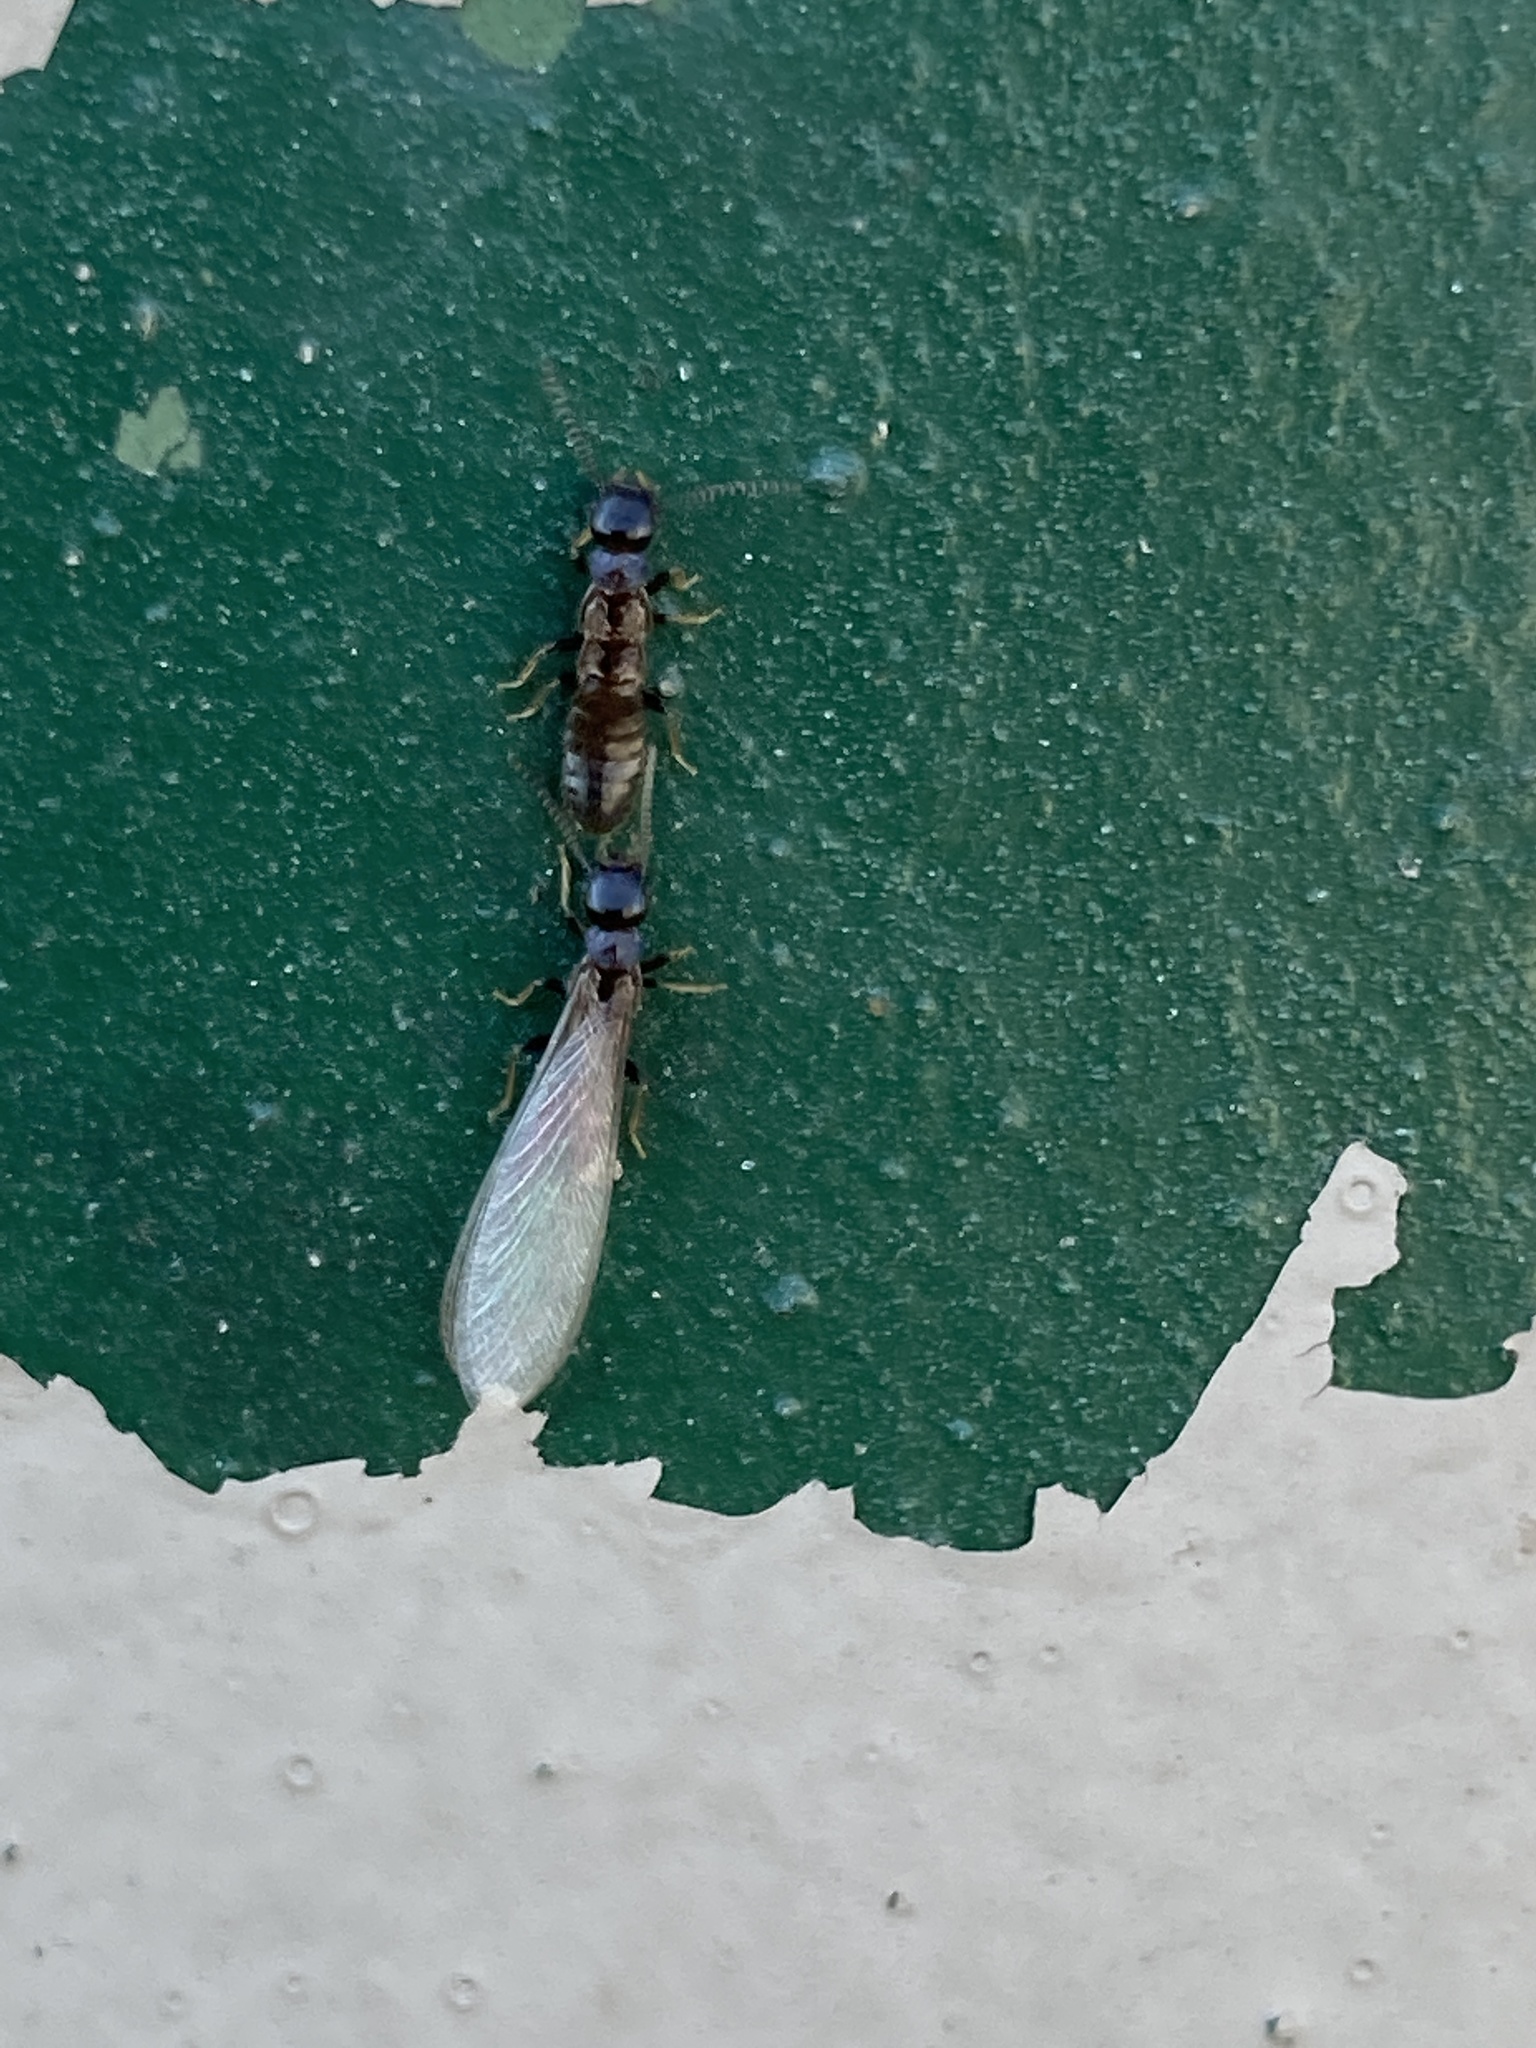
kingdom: Animalia
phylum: Arthropoda
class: Insecta
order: Blattodea
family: Rhinotermitidae
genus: Reticulitermes
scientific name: Reticulitermes flavipes
